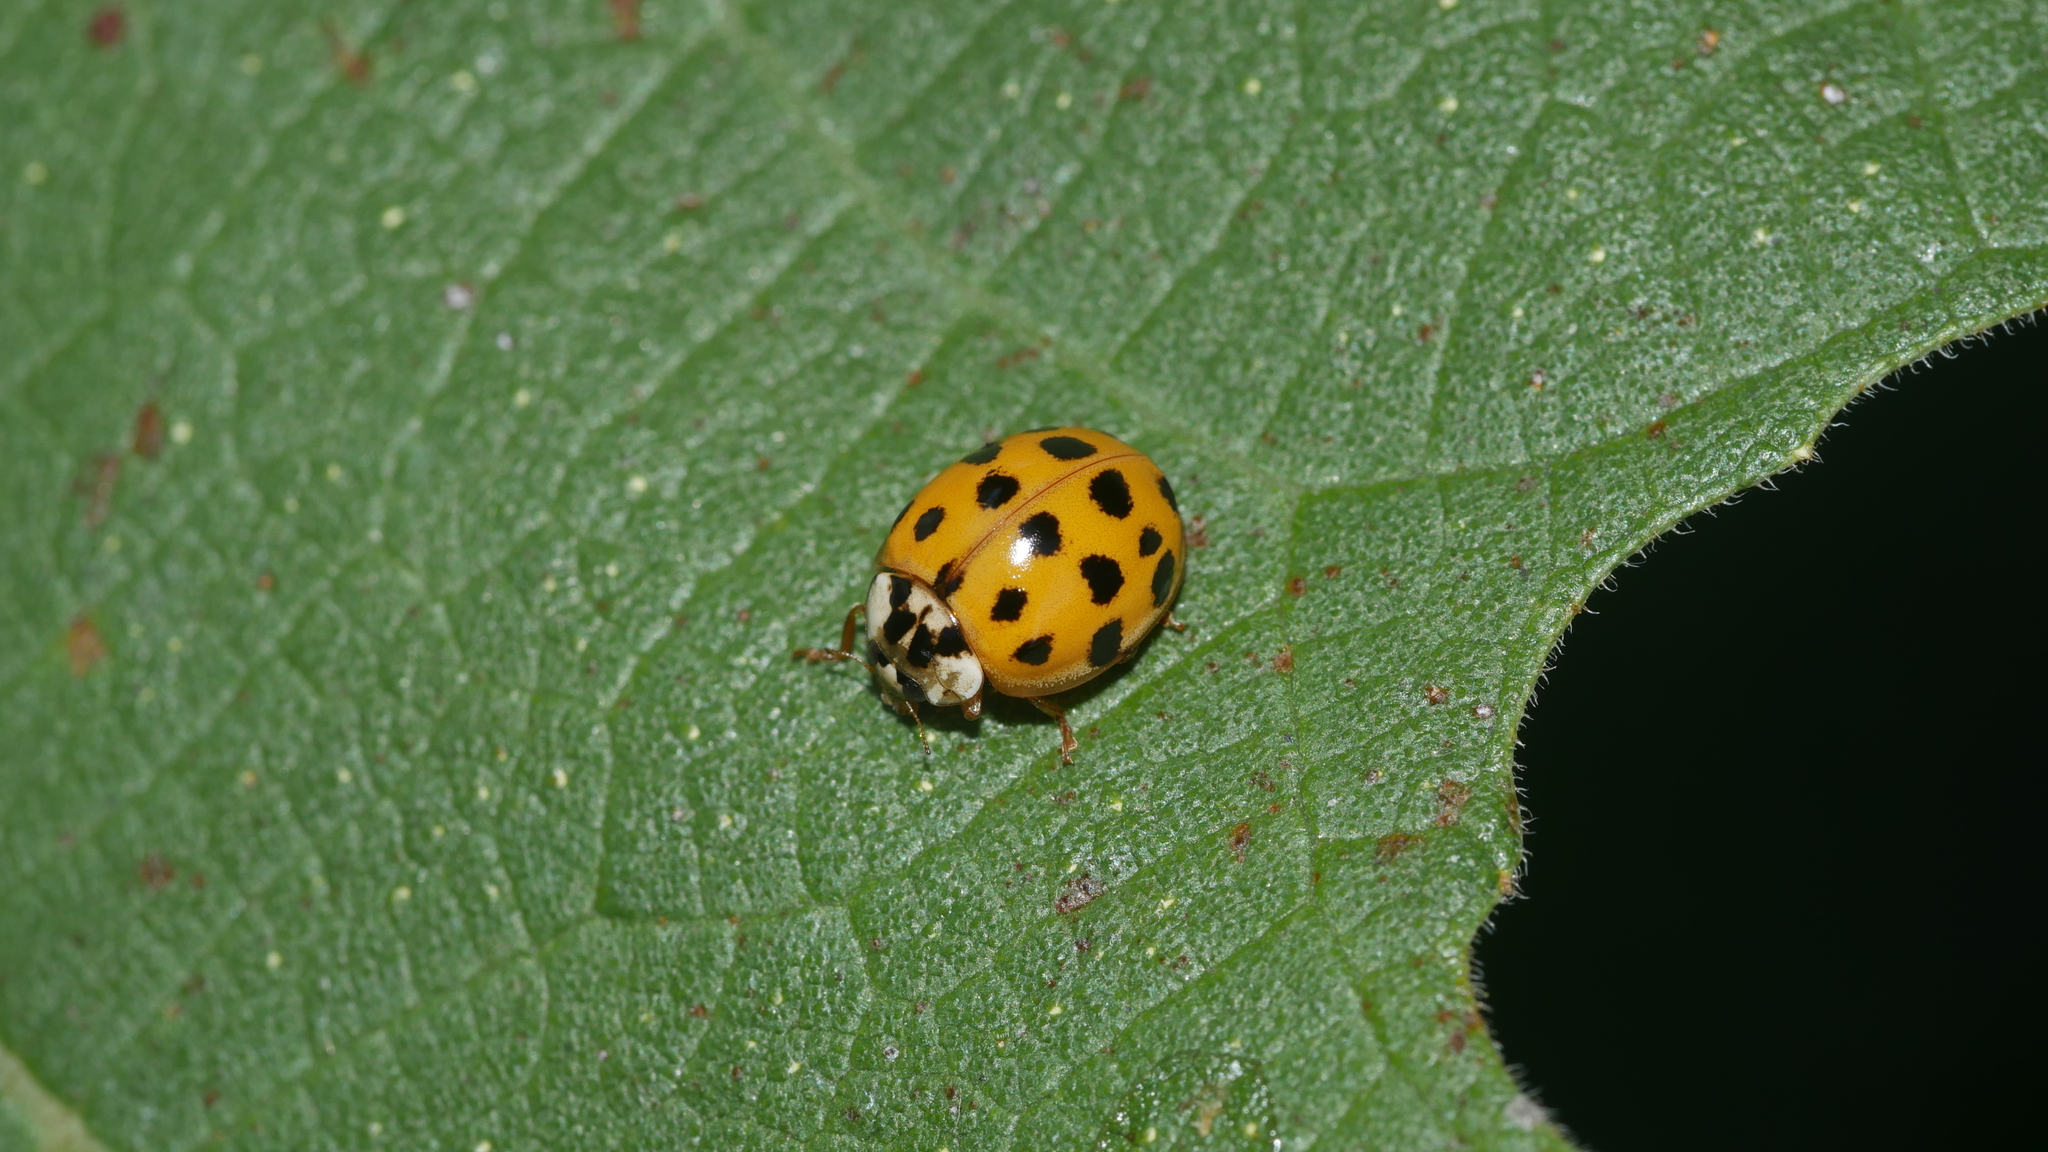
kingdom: Animalia
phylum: Arthropoda
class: Insecta
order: Coleoptera
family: Coccinellidae
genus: Harmonia
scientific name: Harmonia axyridis
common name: Harlequin ladybird
